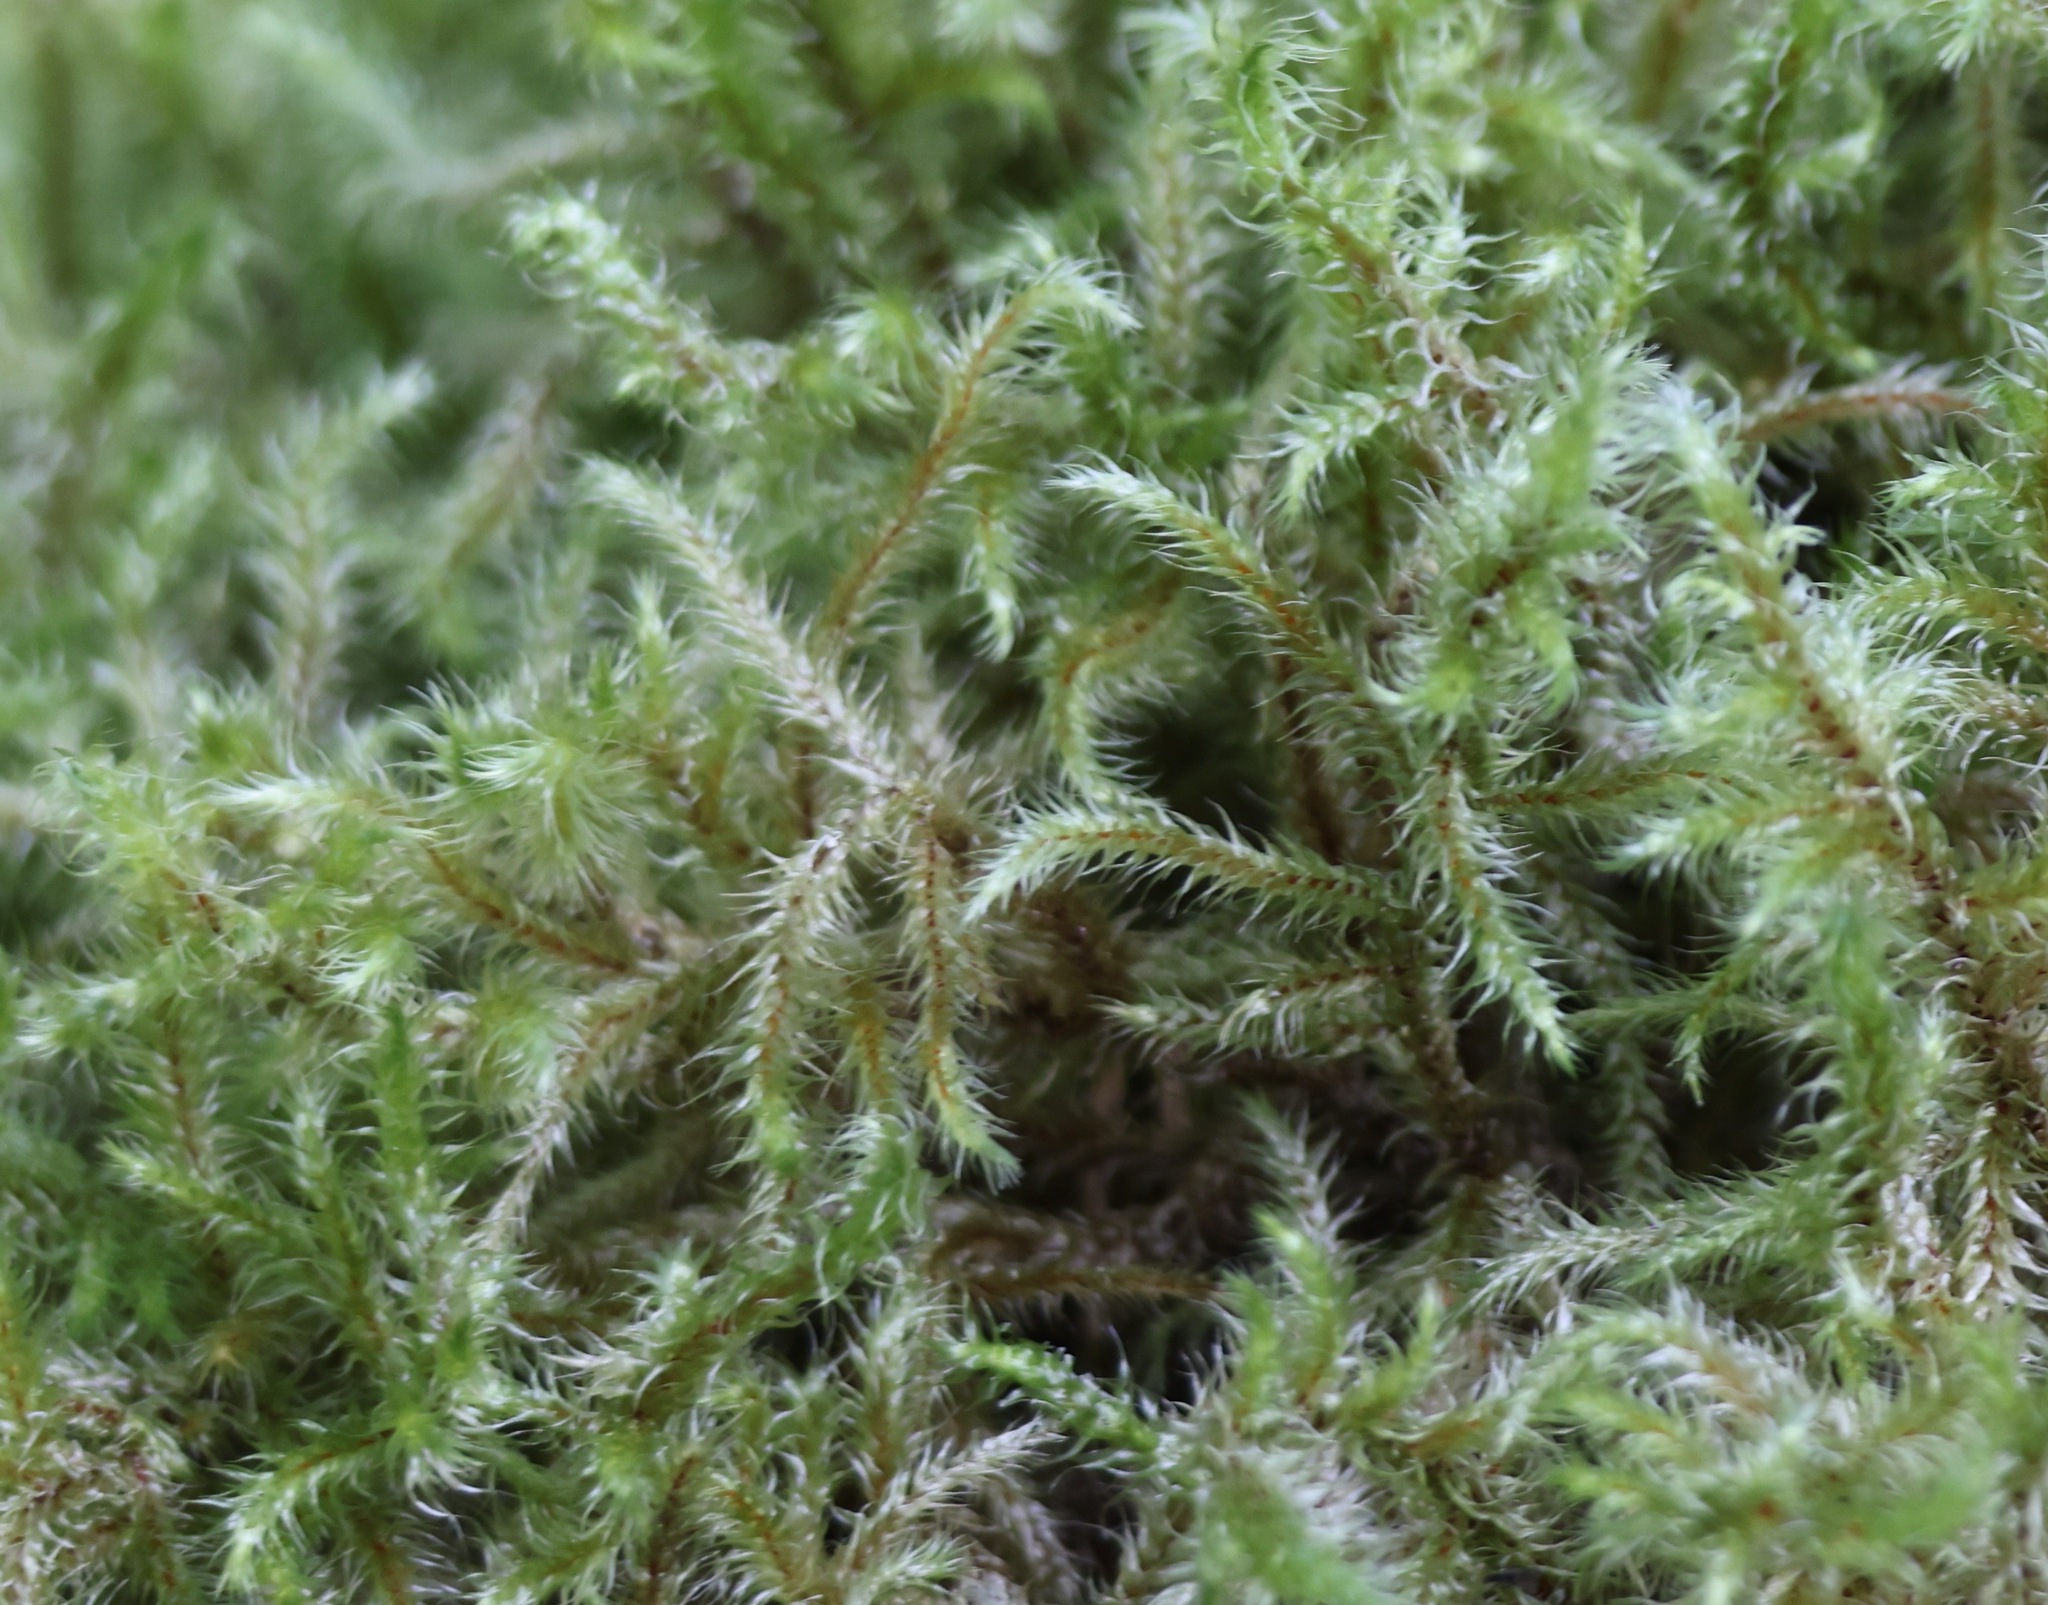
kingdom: Plantae
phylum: Bryophyta
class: Bryopsida
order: Hypnales
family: Hylocomiaceae
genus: Rhytidiadelphus
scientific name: Rhytidiadelphus loreus
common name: Lanky moss
